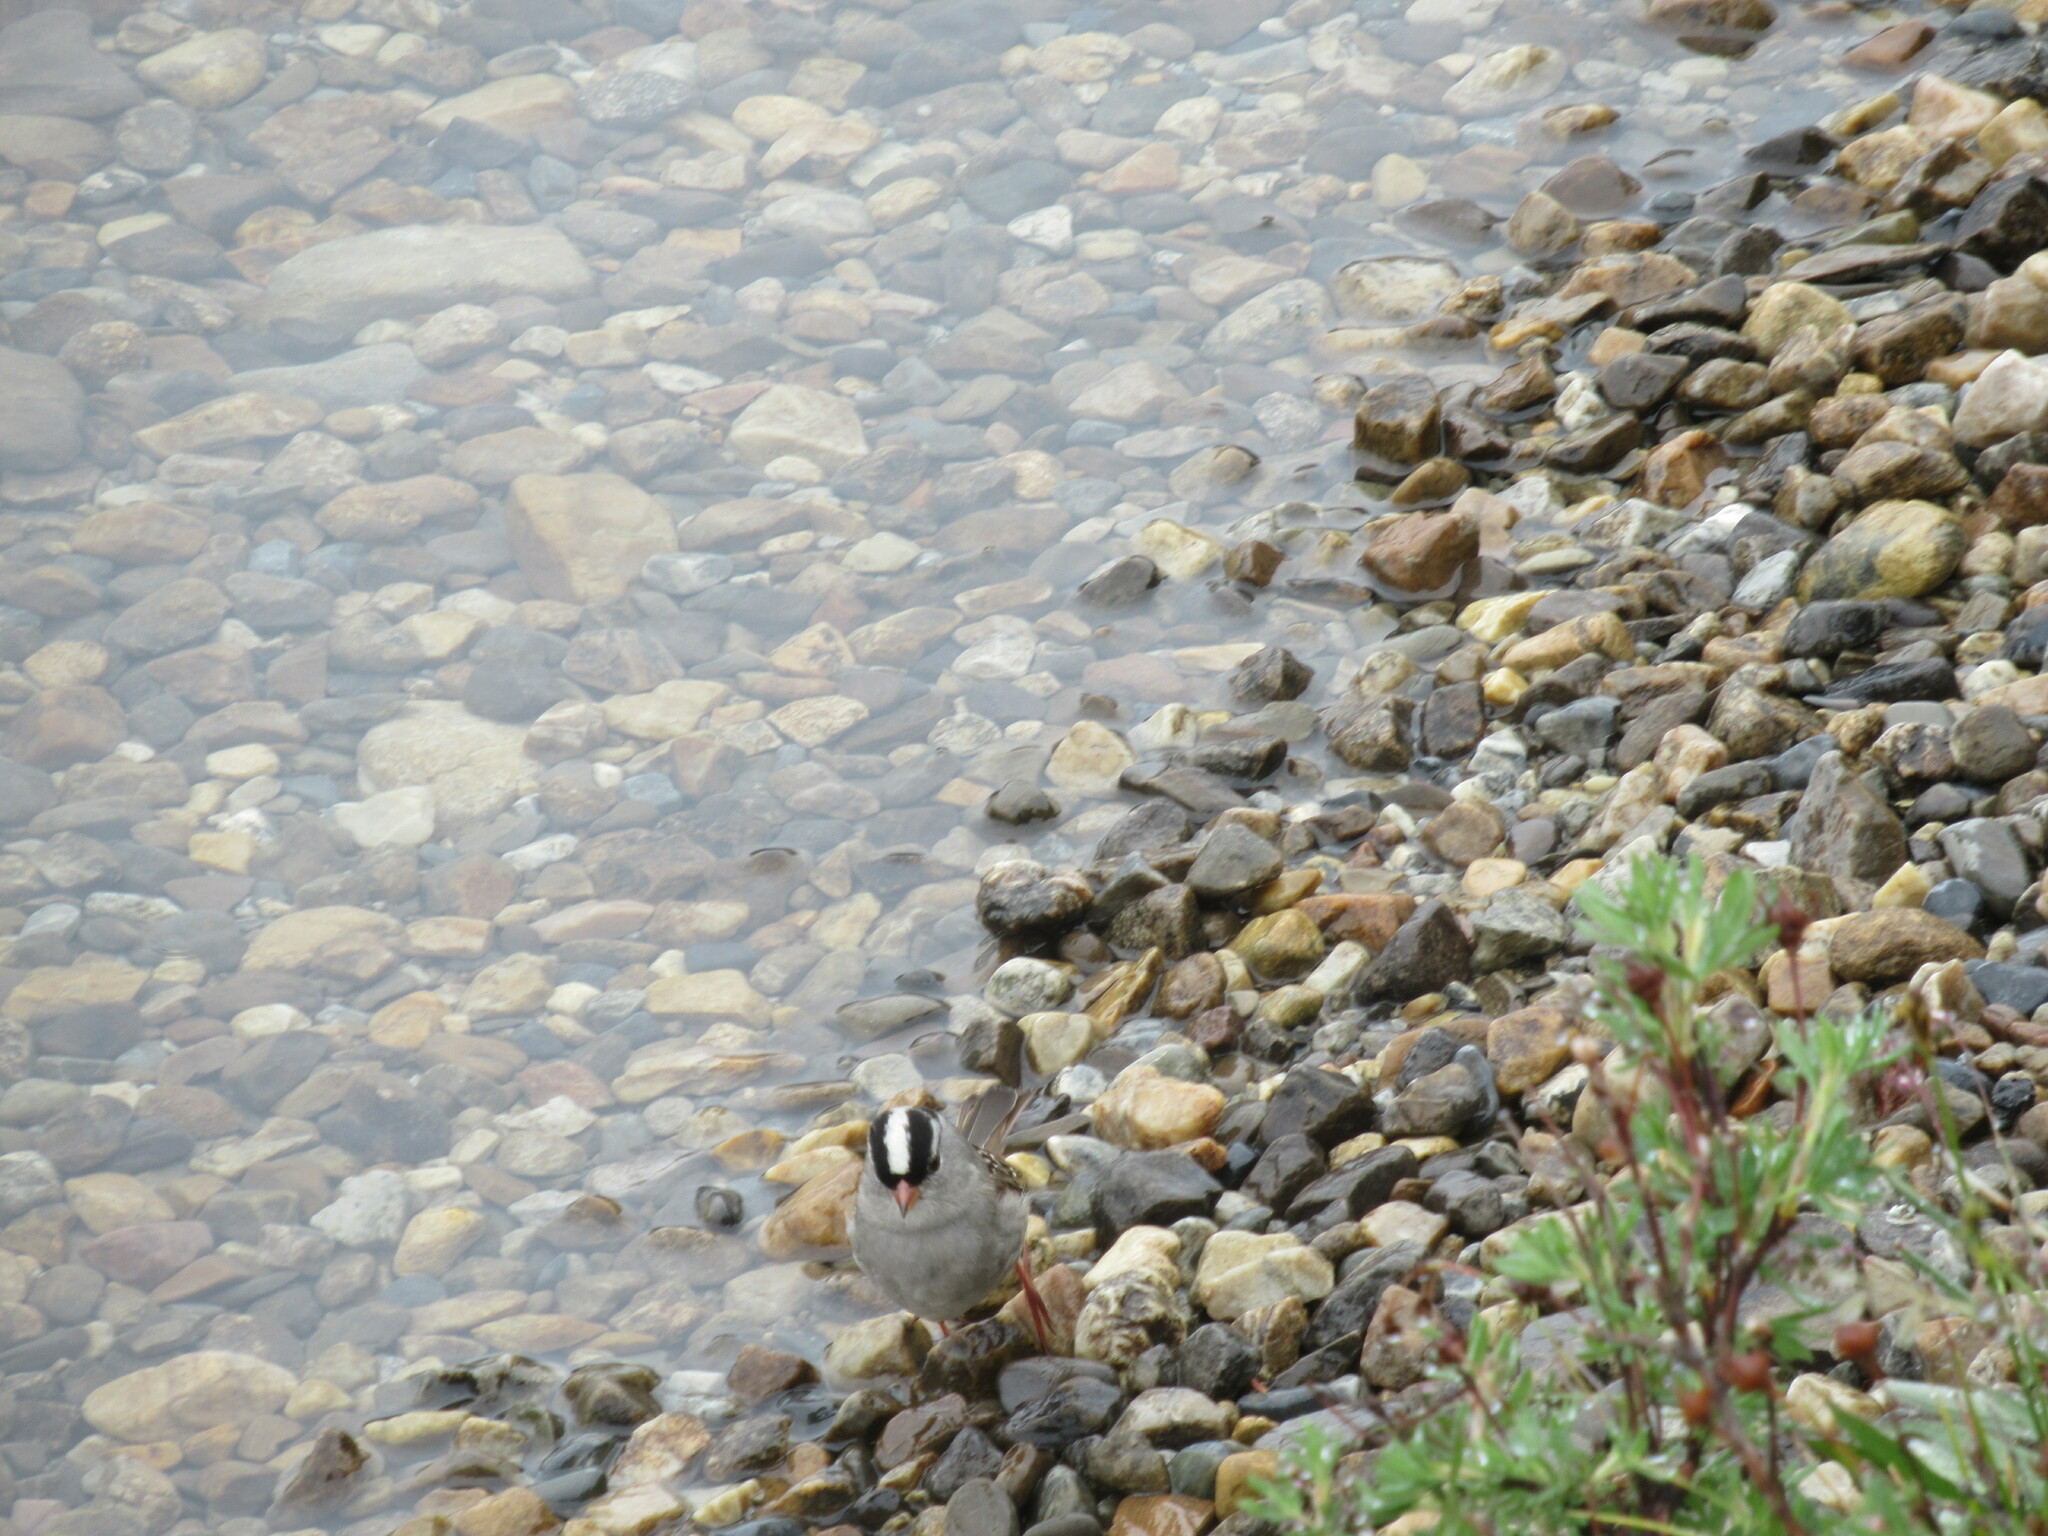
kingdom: Animalia
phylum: Chordata
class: Aves
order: Passeriformes
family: Passerellidae
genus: Zonotrichia
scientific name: Zonotrichia leucophrys
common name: White-crowned sparrow
